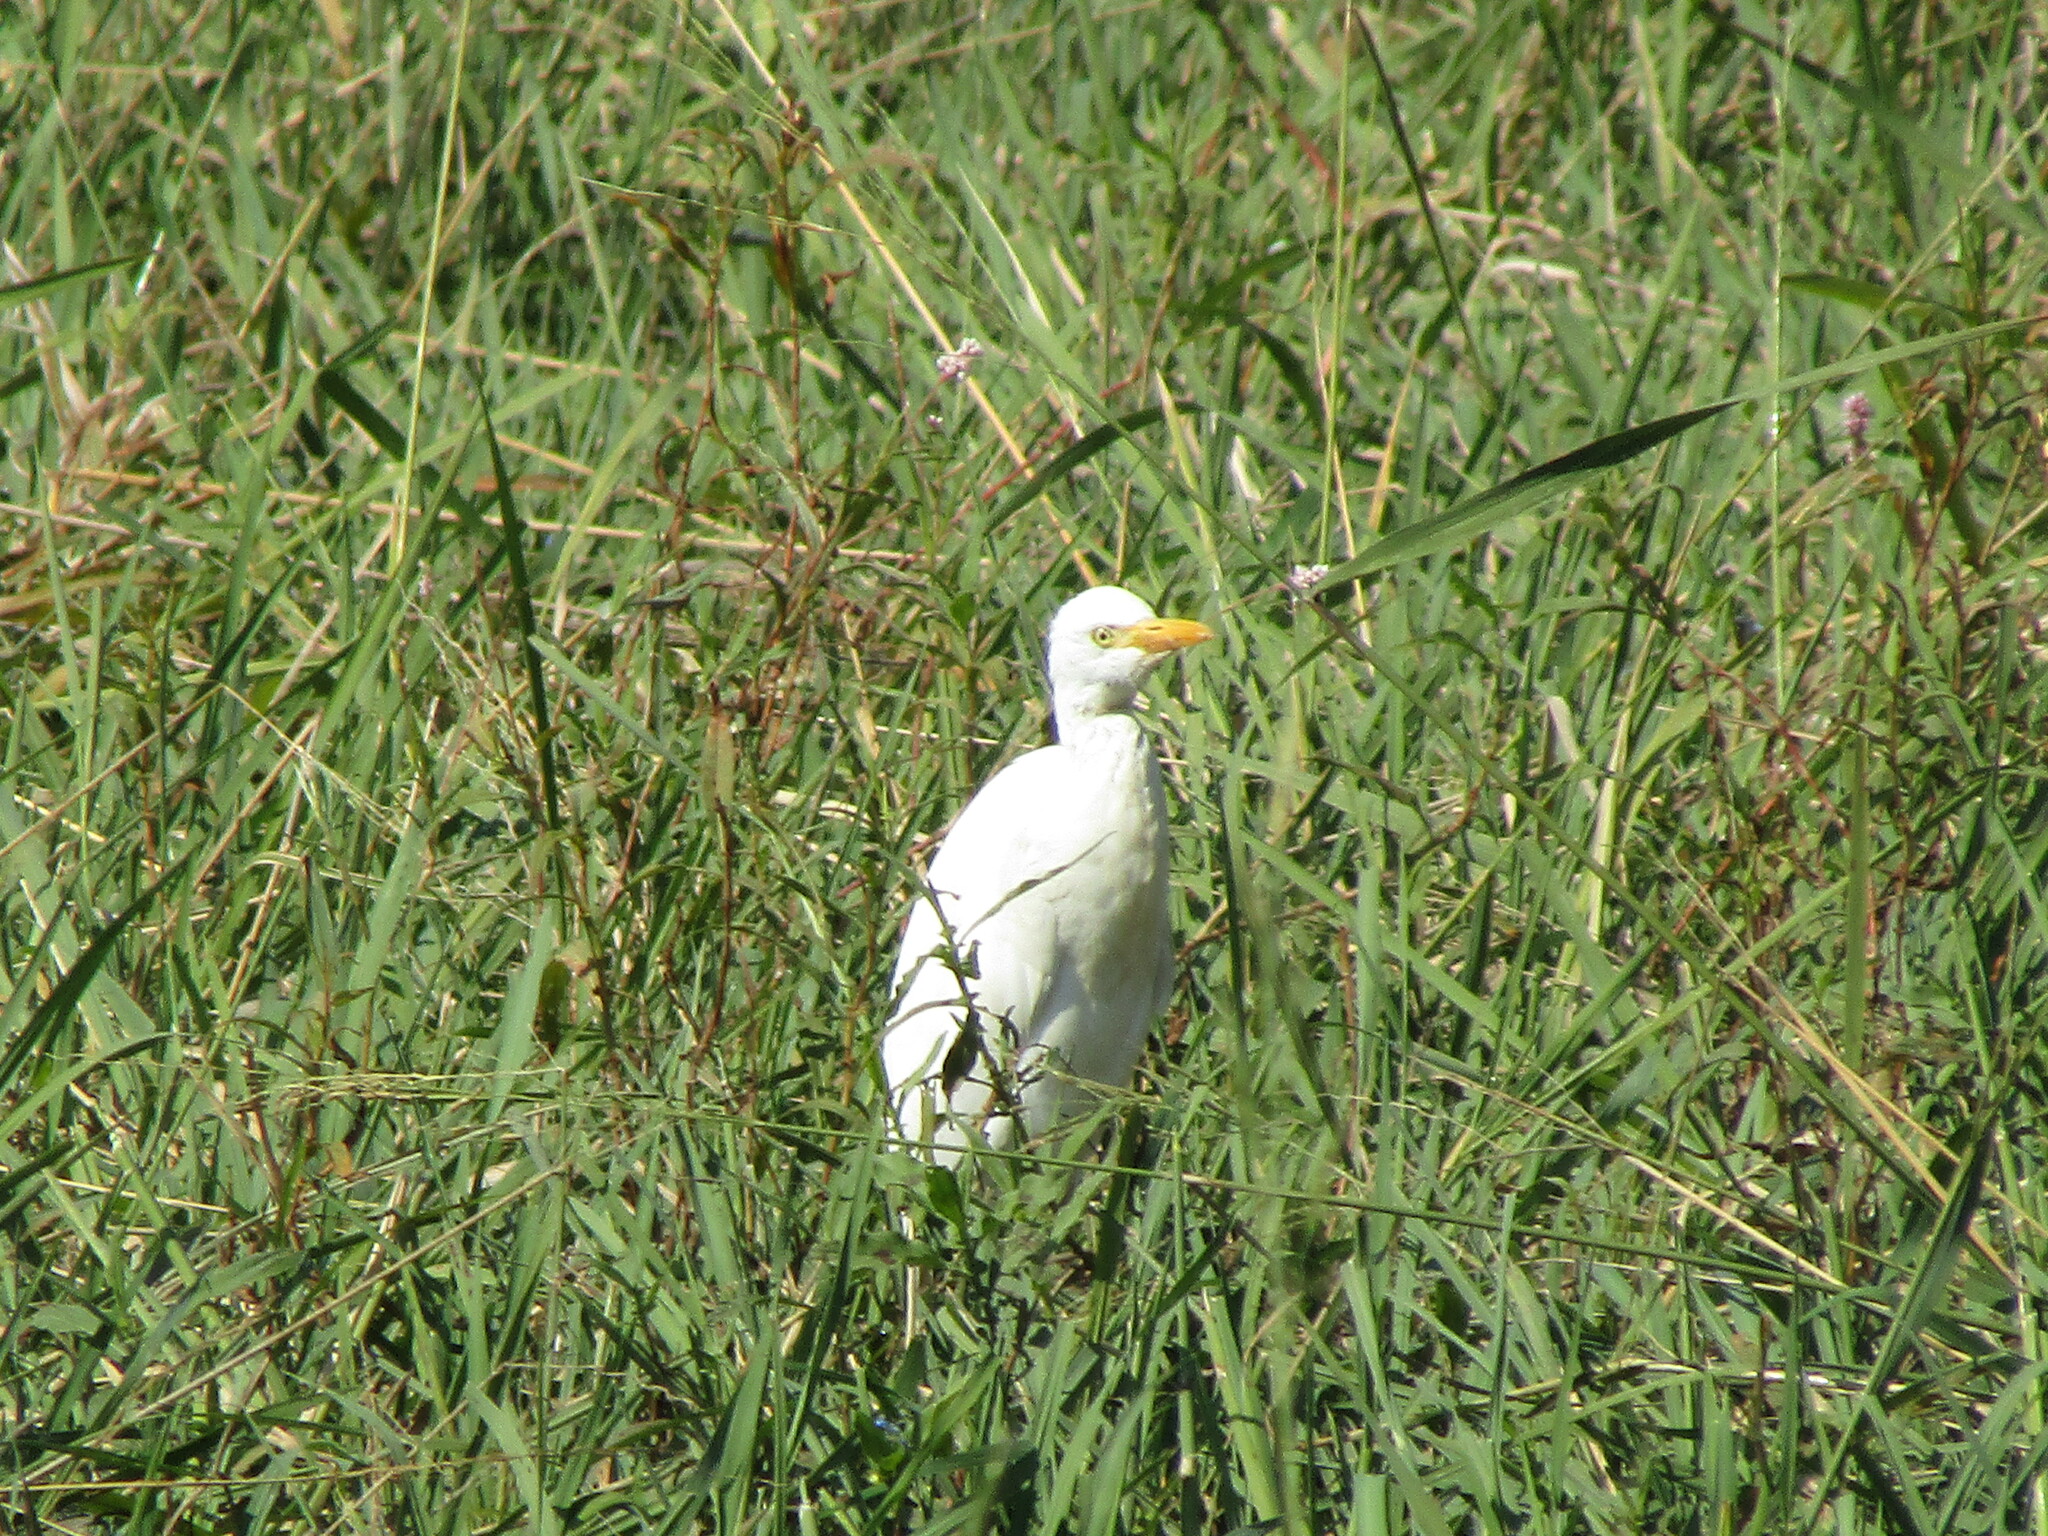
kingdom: Animalia
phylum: Chordata
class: Aves
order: Pelecaniformes
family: Ardeidae
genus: Bubulcus
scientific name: Bubulcus ibis
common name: Cattle egret
